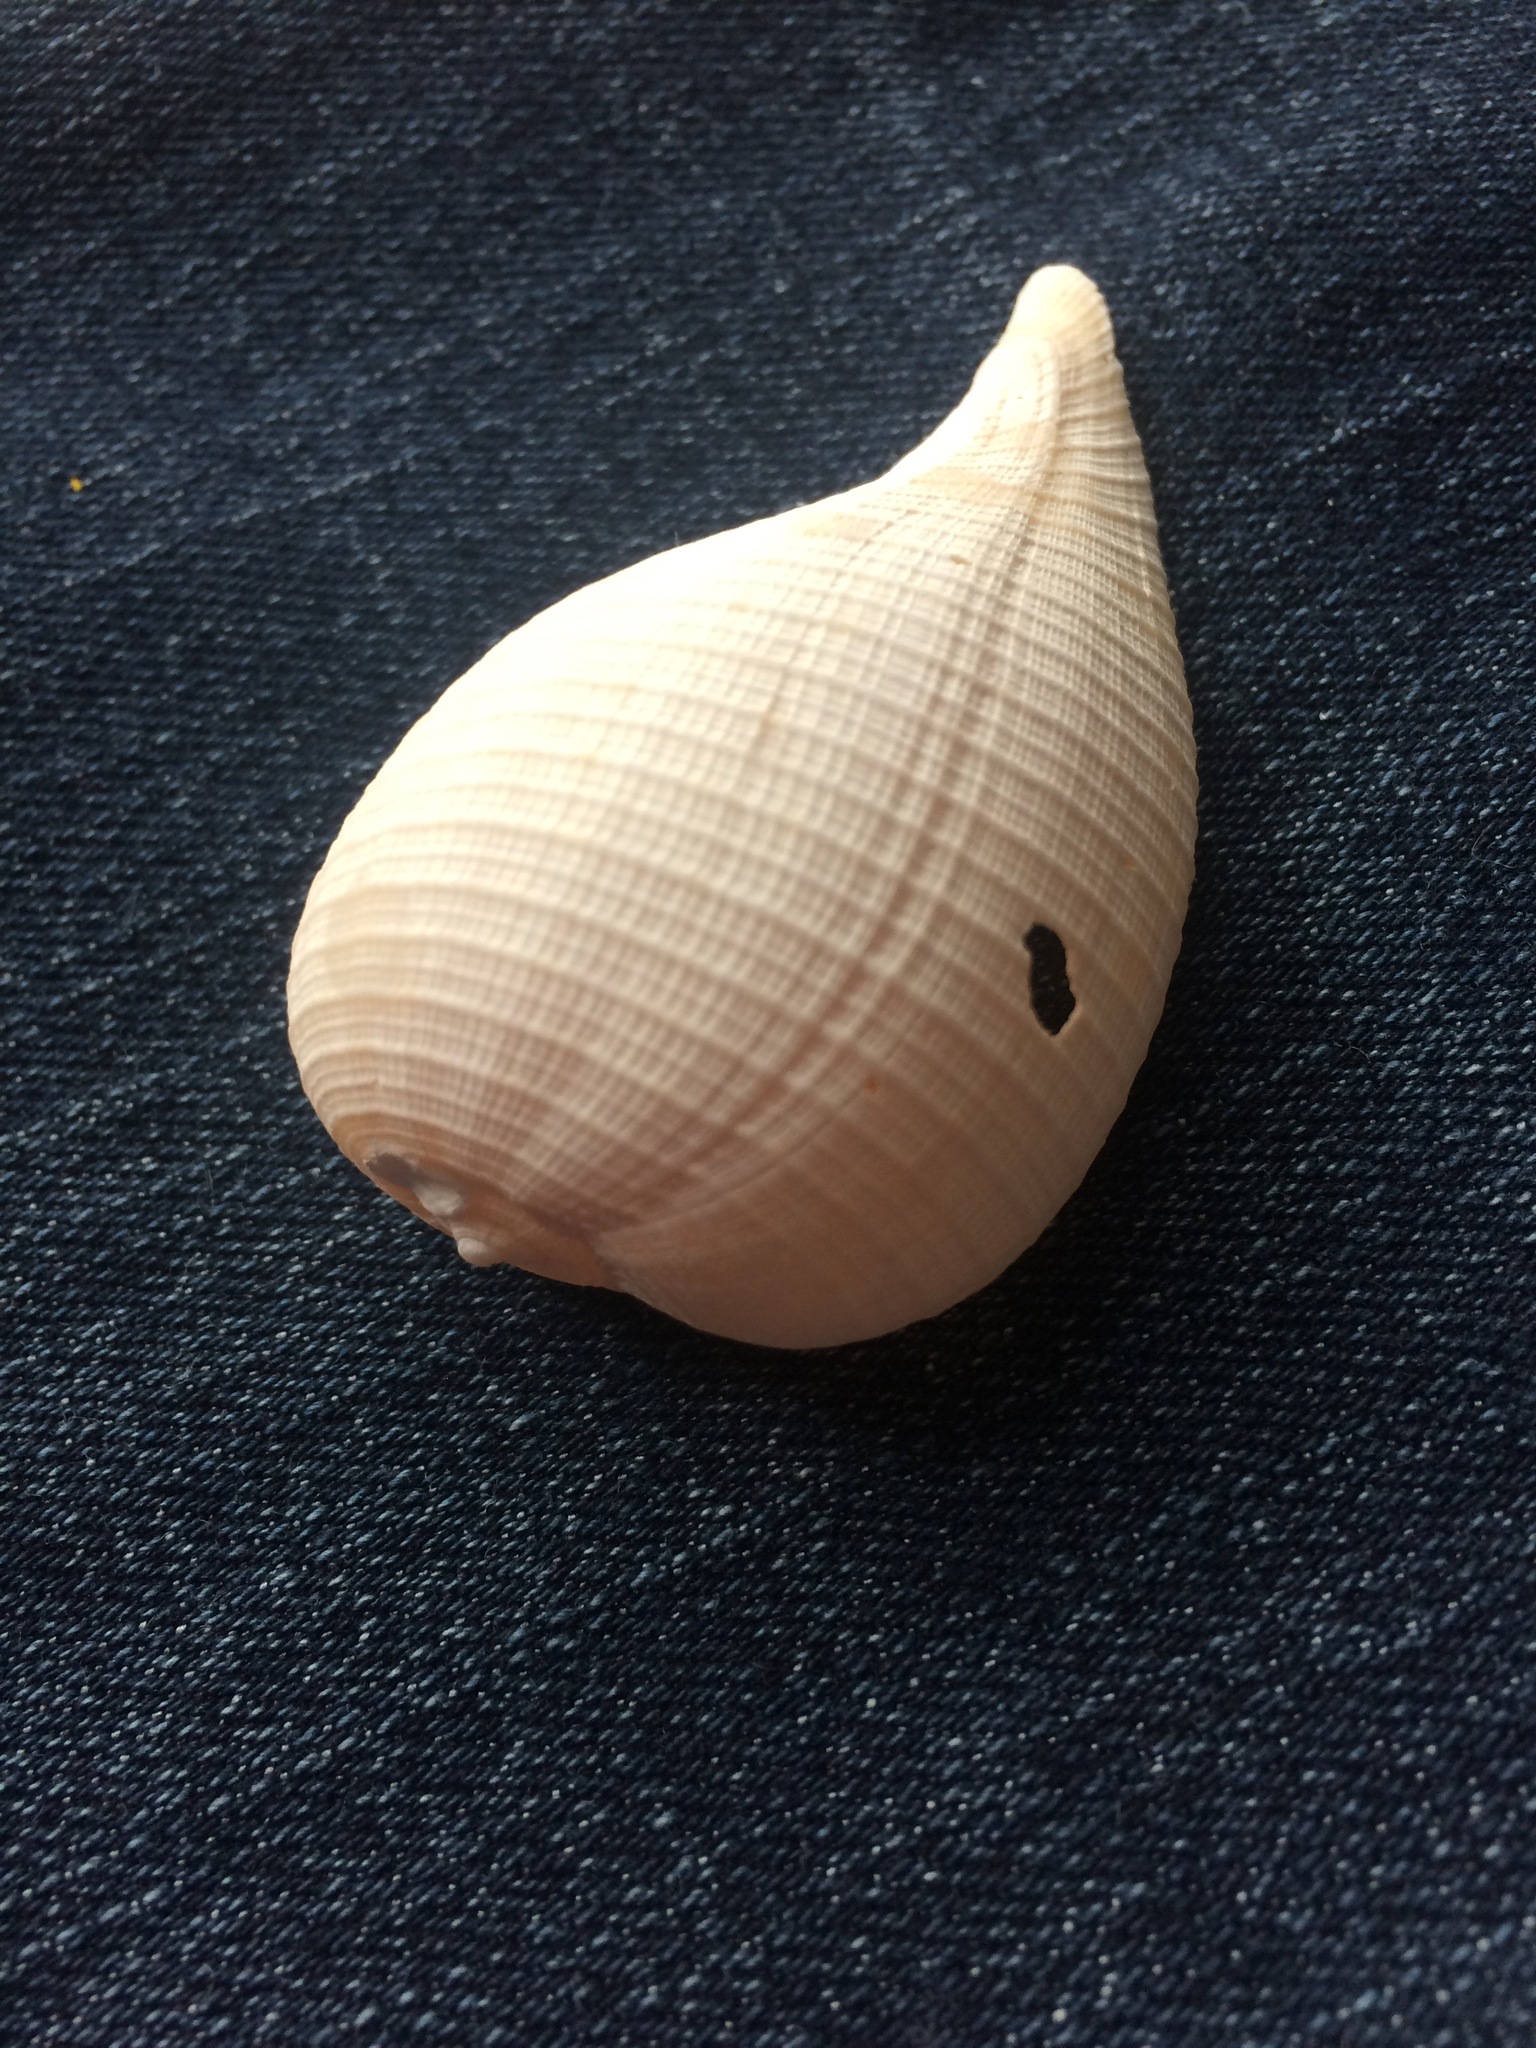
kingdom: Animalia
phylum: Mollusca
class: Gastropoda
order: Littorinimorpha
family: Ficidae
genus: Ficus
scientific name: Ficus papyratia
